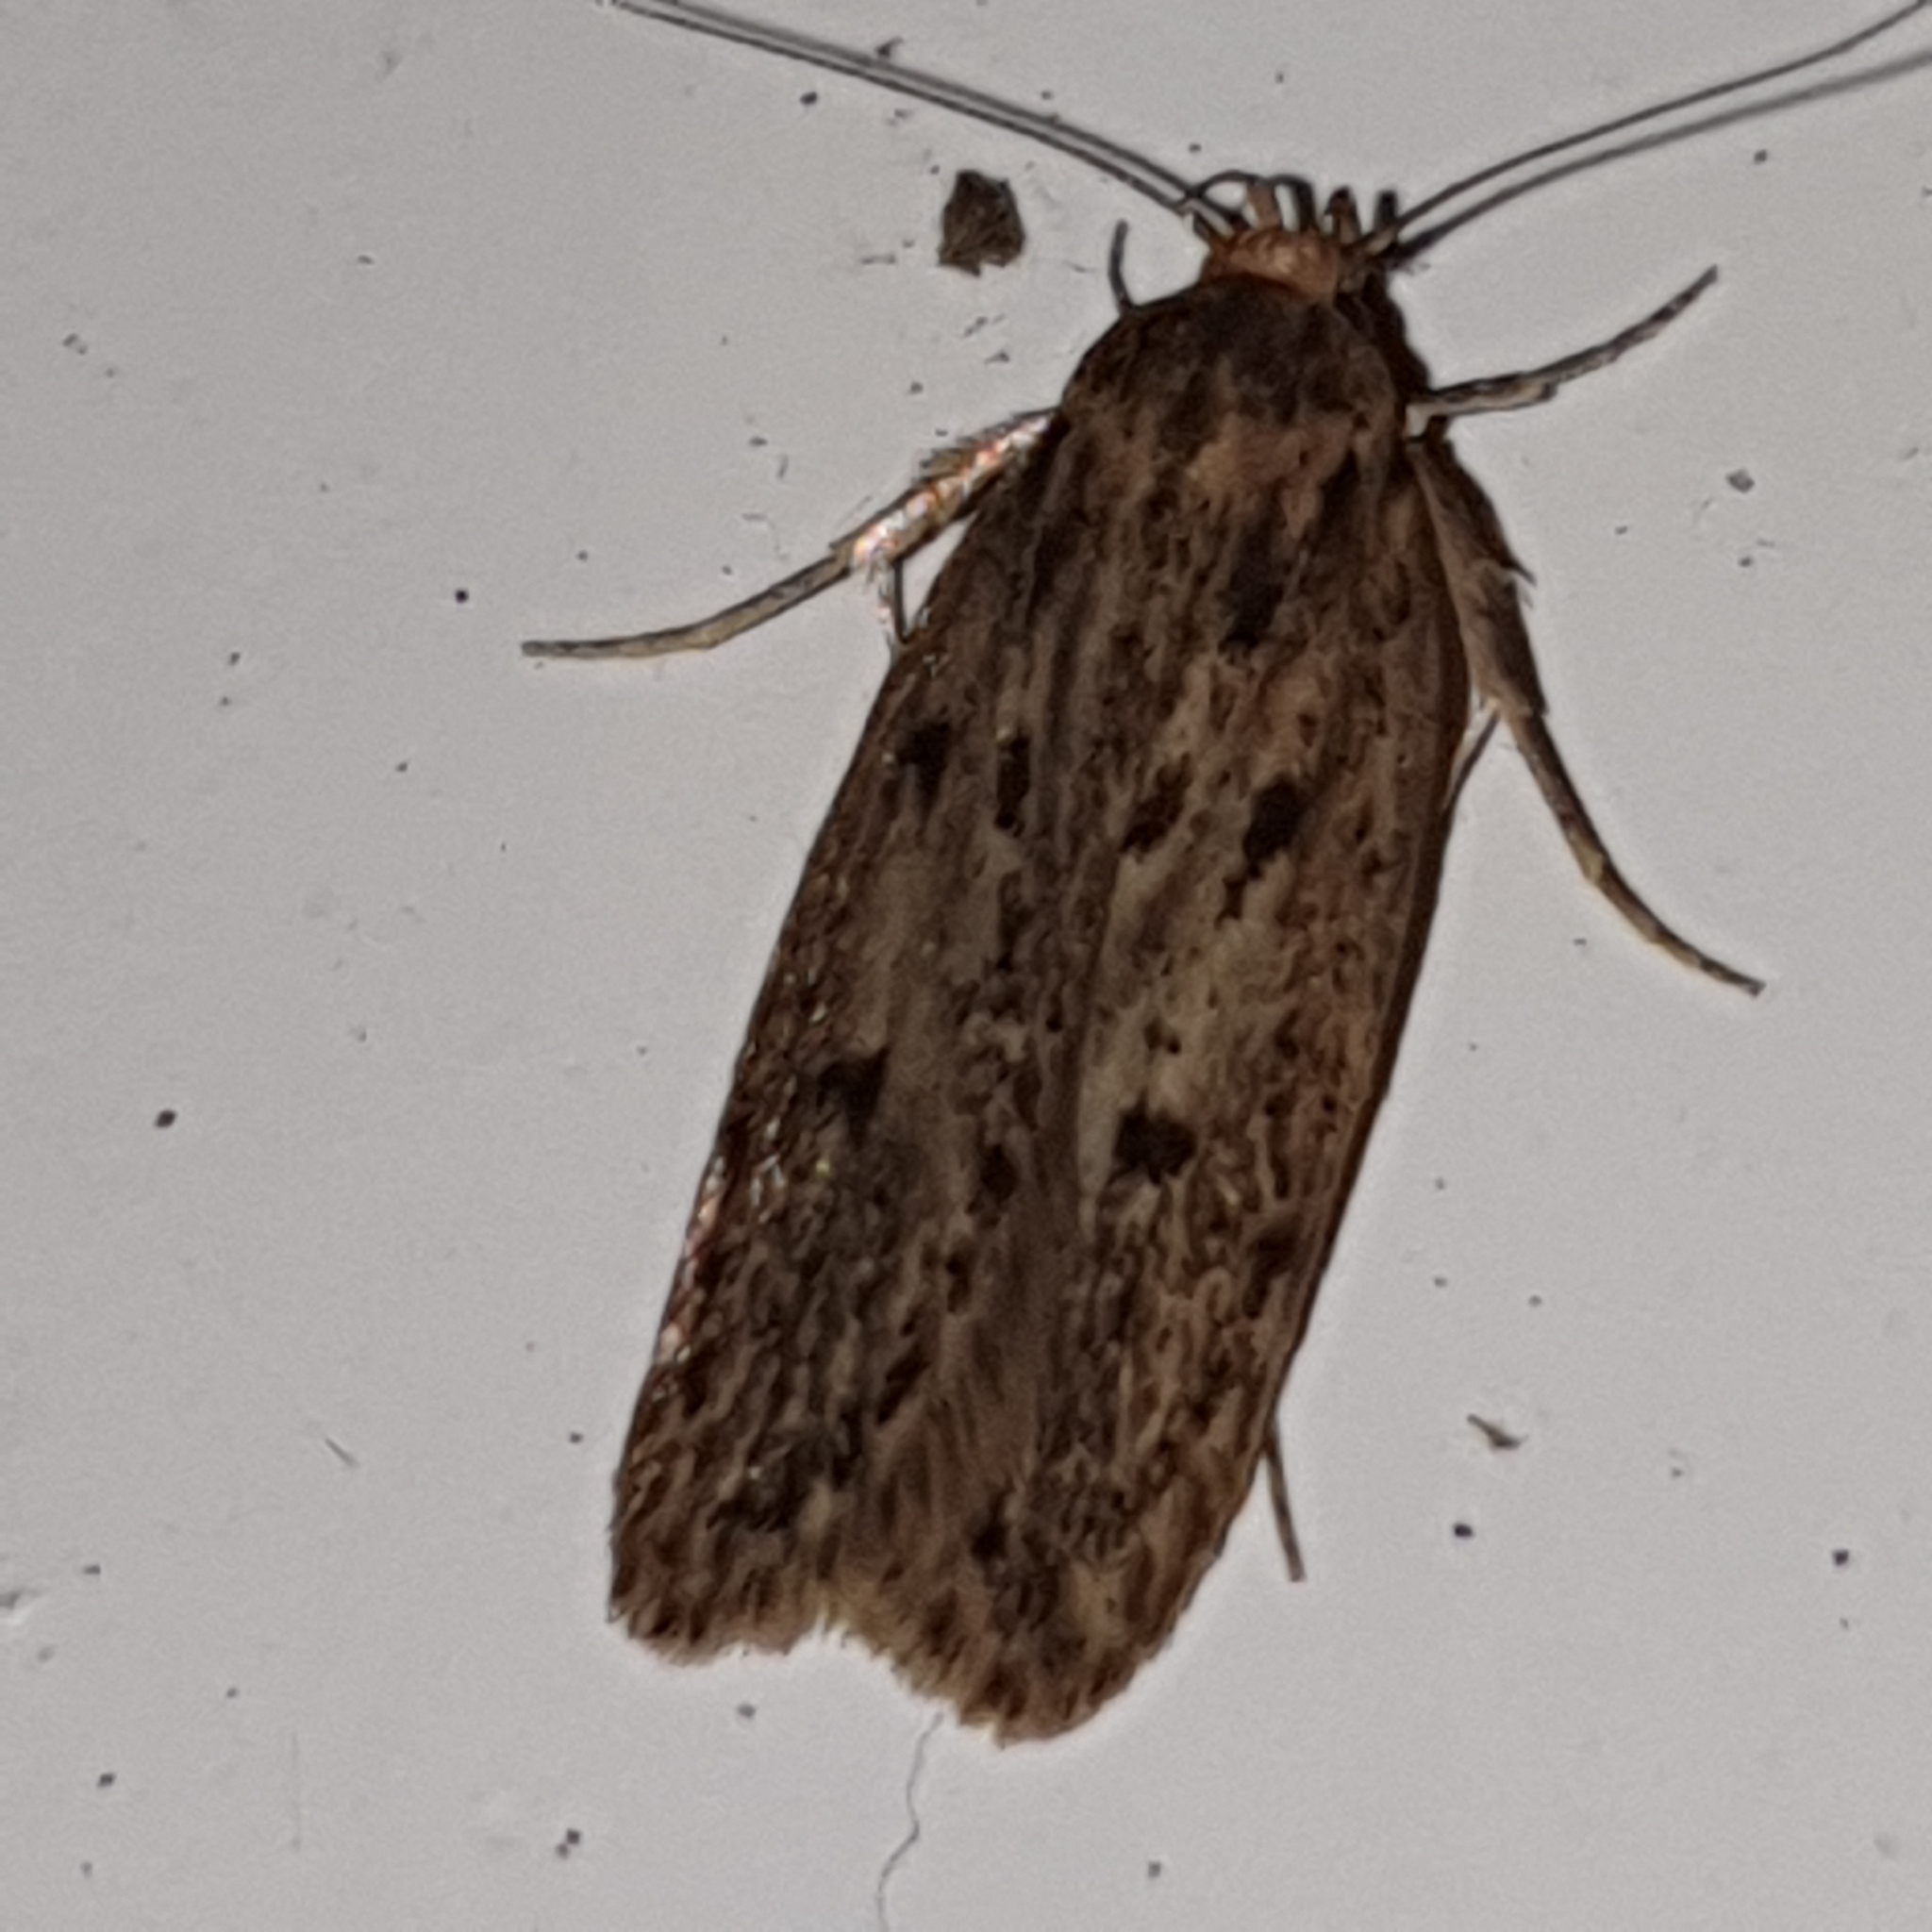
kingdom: Animalia
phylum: Arthropoda
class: Insecta
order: Lepidoptera
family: Oecophoridae
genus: Hofmannophila
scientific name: Hofmannophila pseudospretella
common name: Brown house moth
